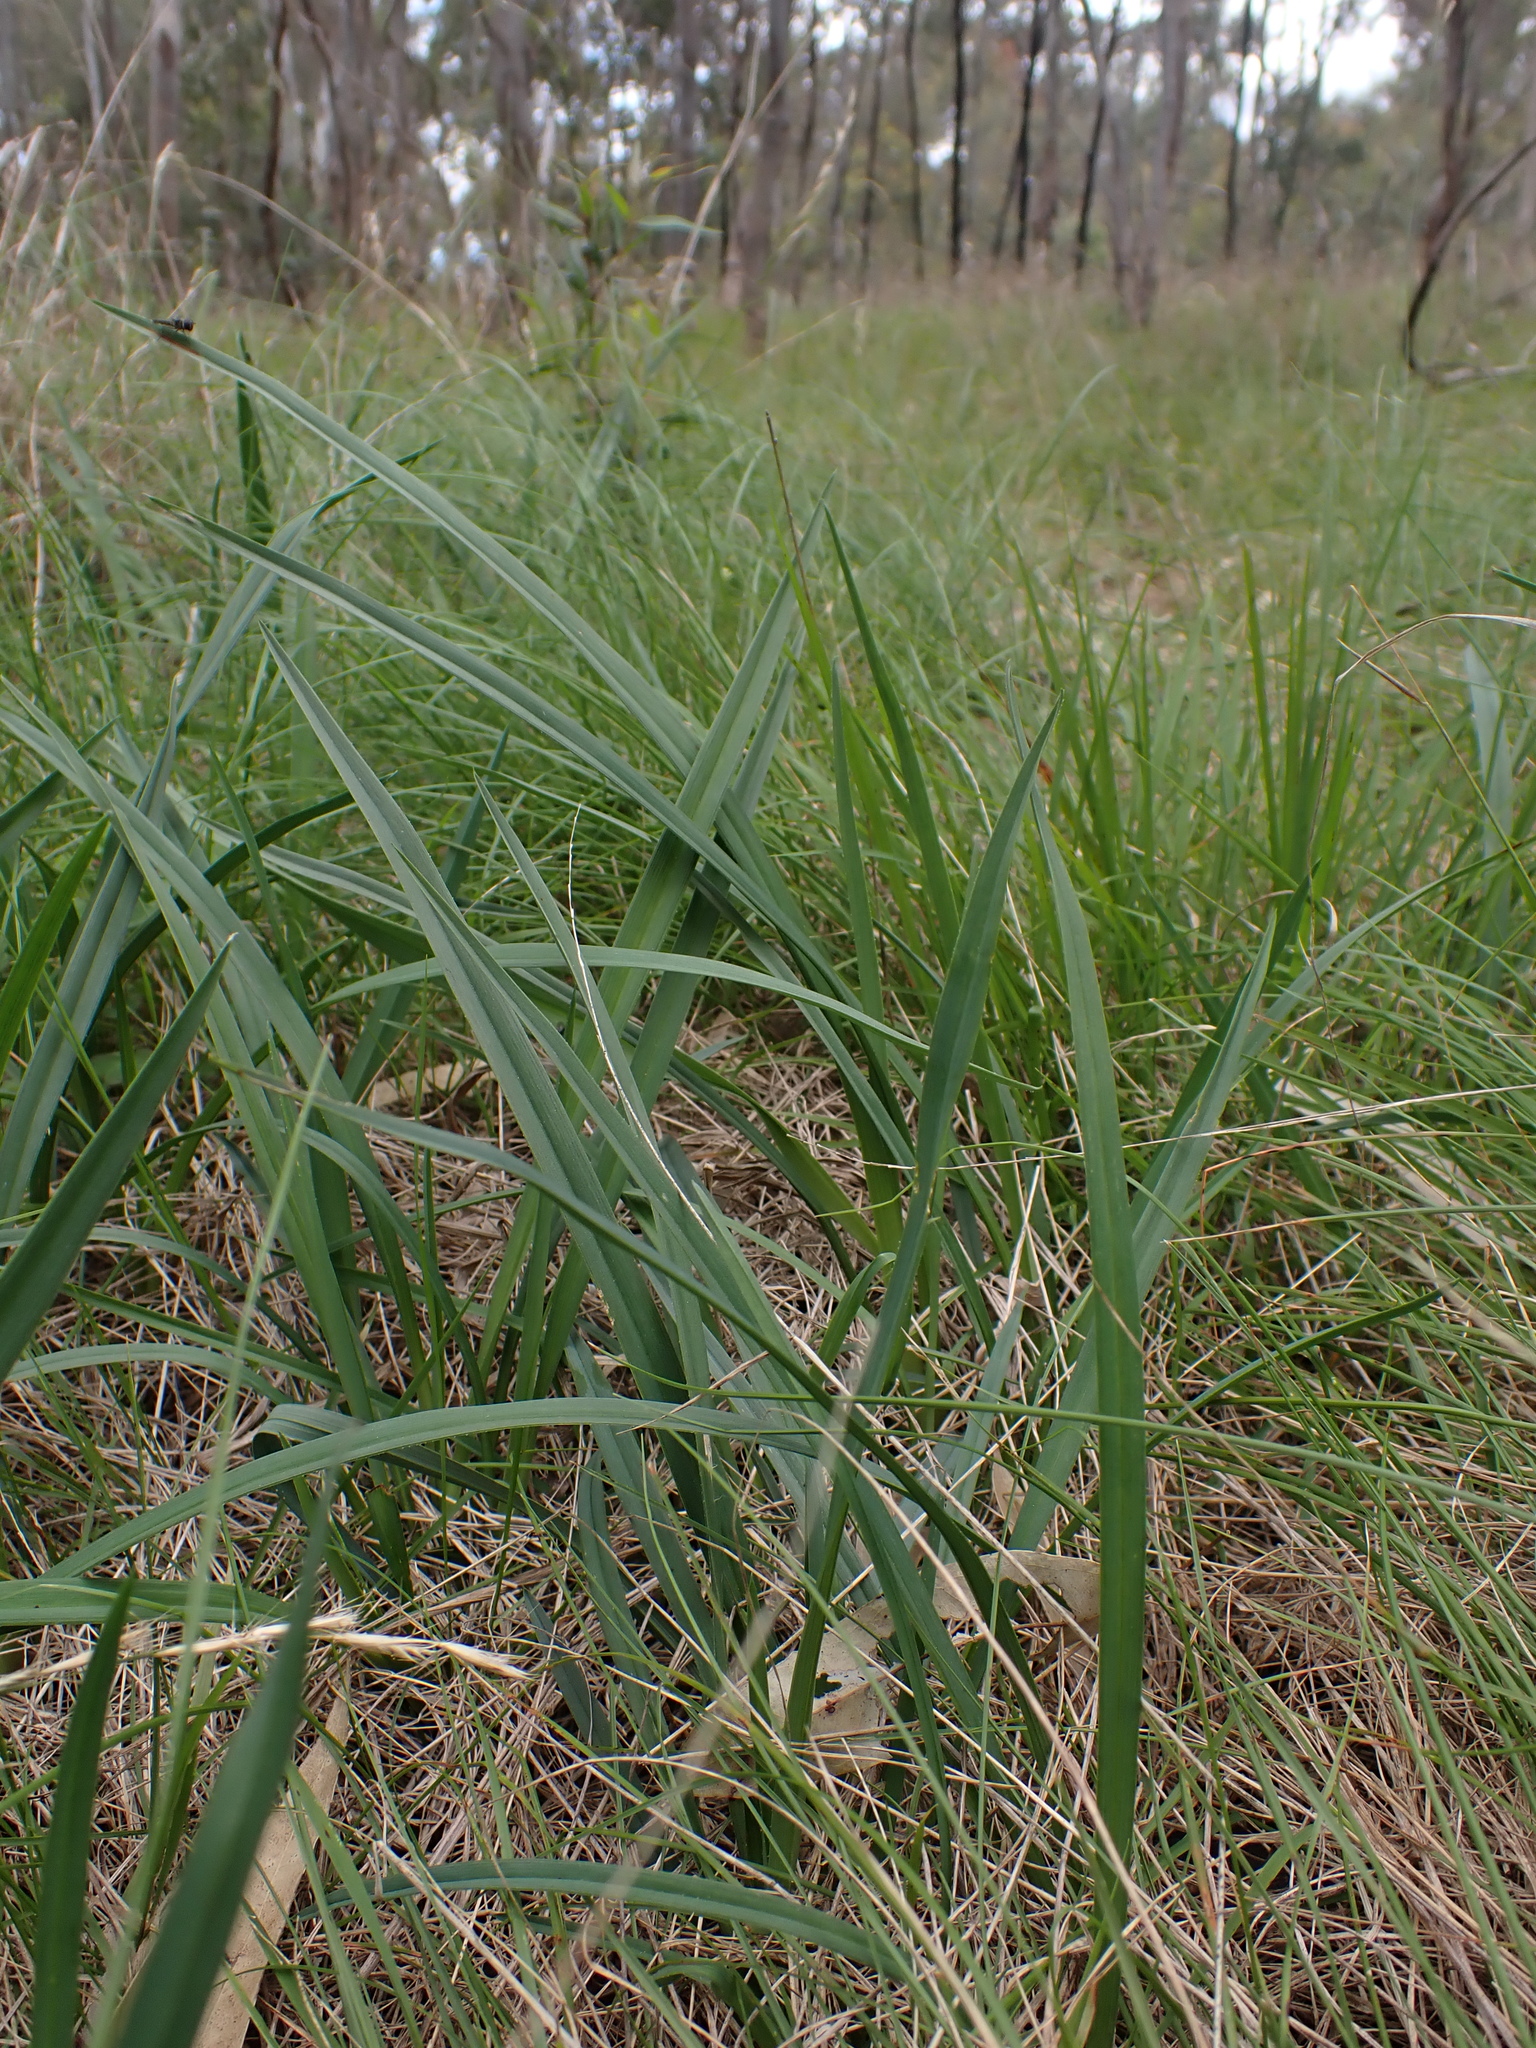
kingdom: Plantae
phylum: Tracheophyta
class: Liliopsida
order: Asparagales
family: Asphodelaceae
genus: Dianella
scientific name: Dianella amoena
